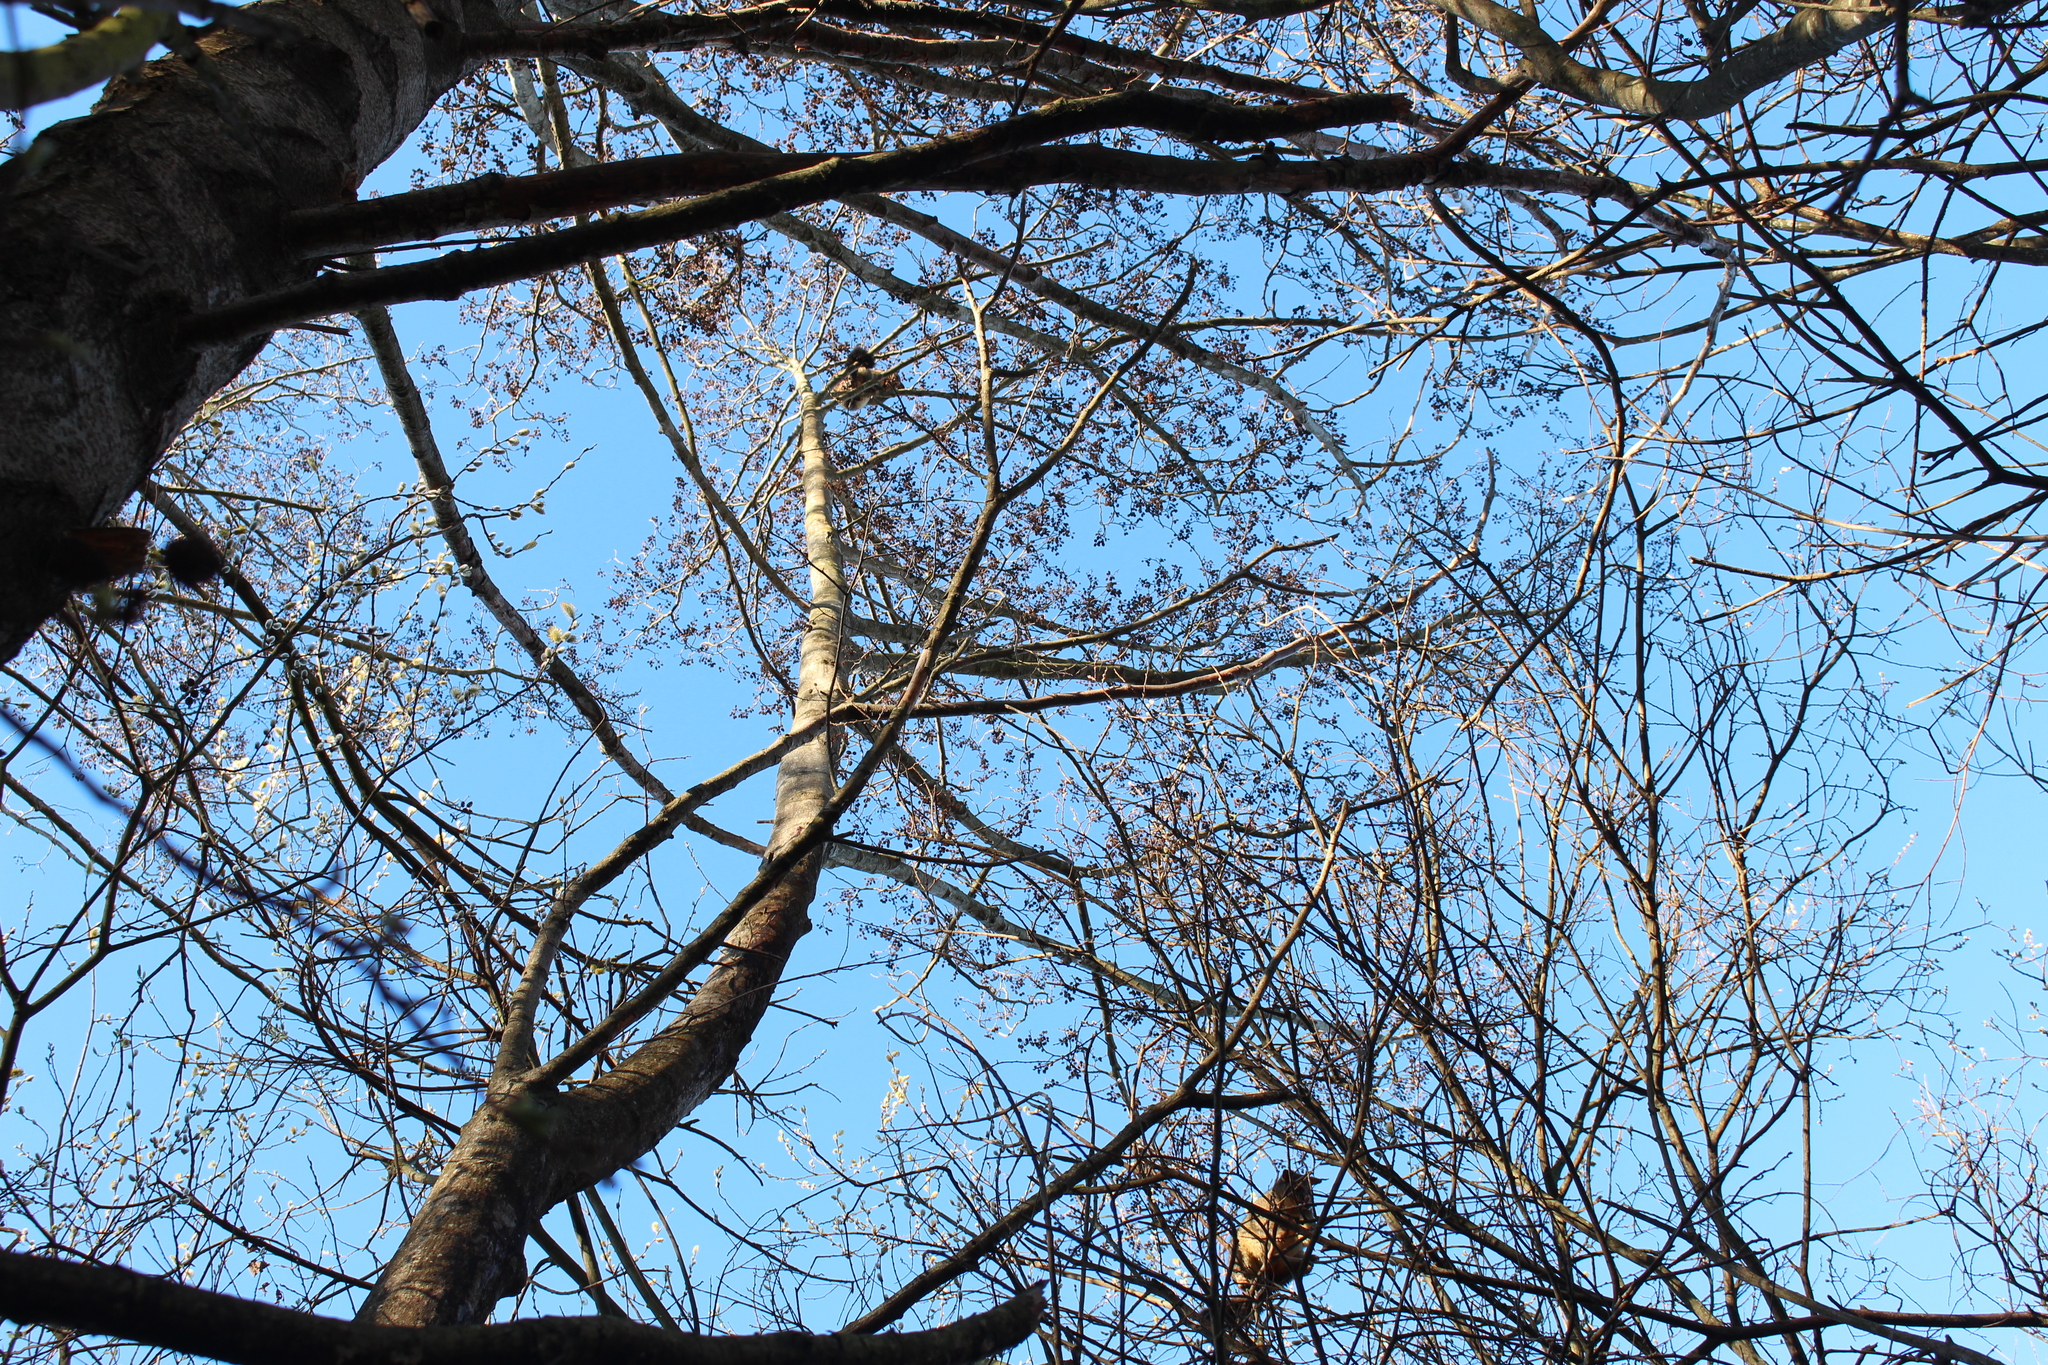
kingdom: Animalia
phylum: Chordata
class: Mammalia
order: Diprotodontia
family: Phalangeridae
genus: Trichosurus
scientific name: Trichosurus vulpecula
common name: Common brushtail
